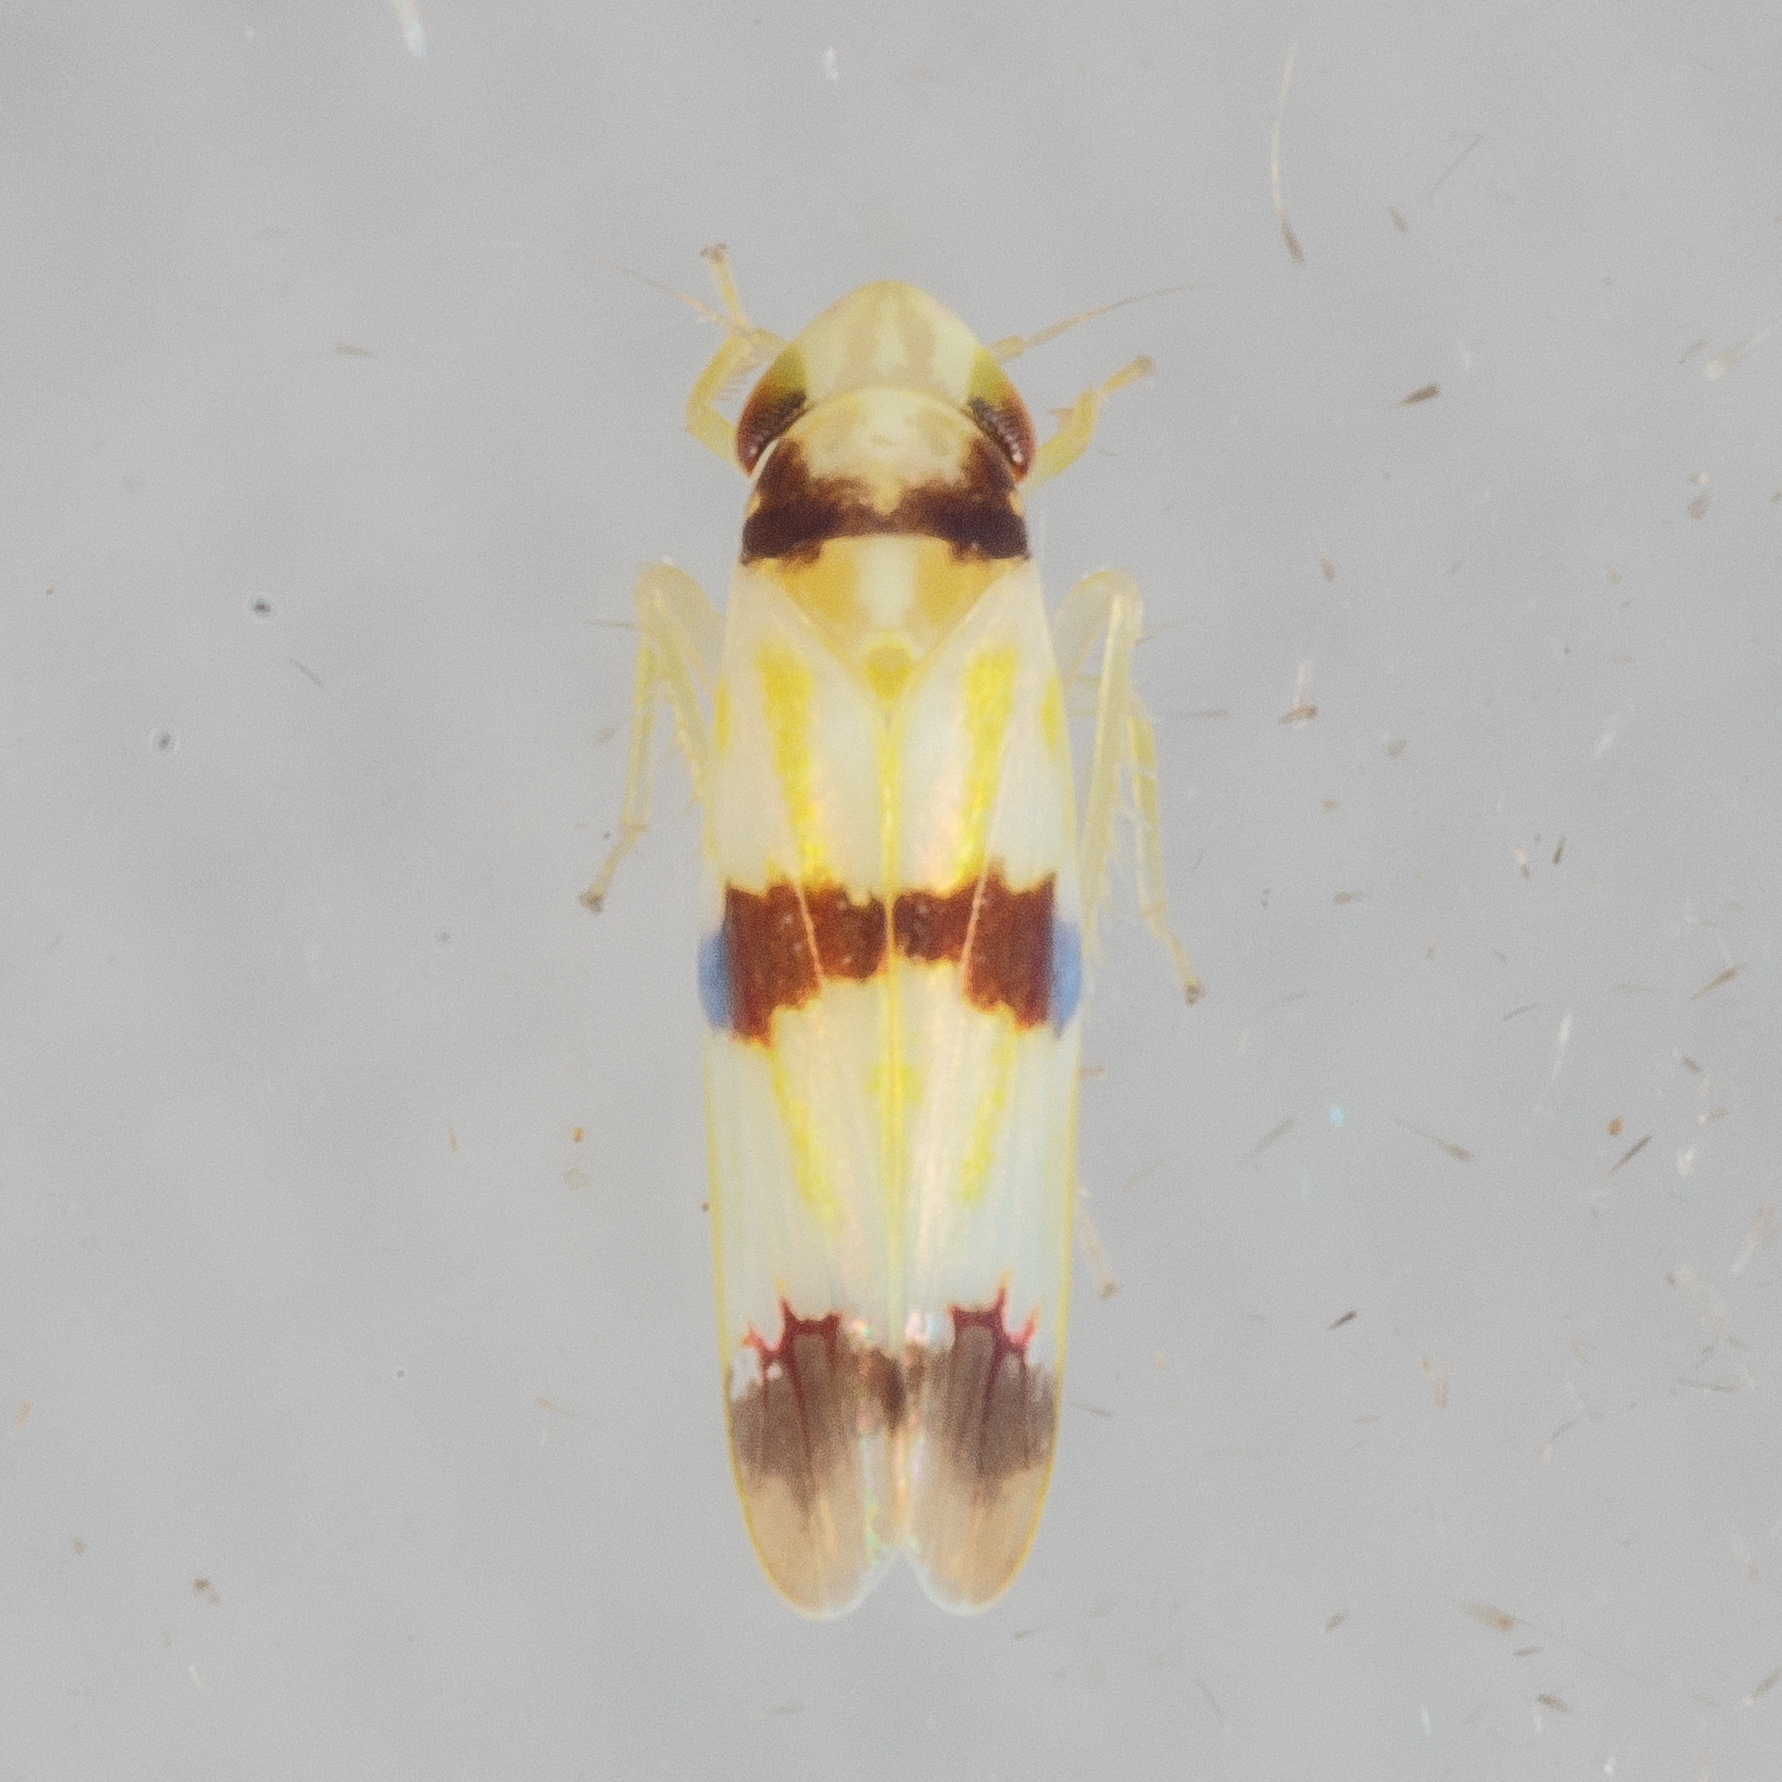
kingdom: Animalia
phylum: Arthropoda
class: Insecta
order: Hemiptera
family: Cicadellidae
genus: Erythroneura
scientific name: Erythroneura cymbium
